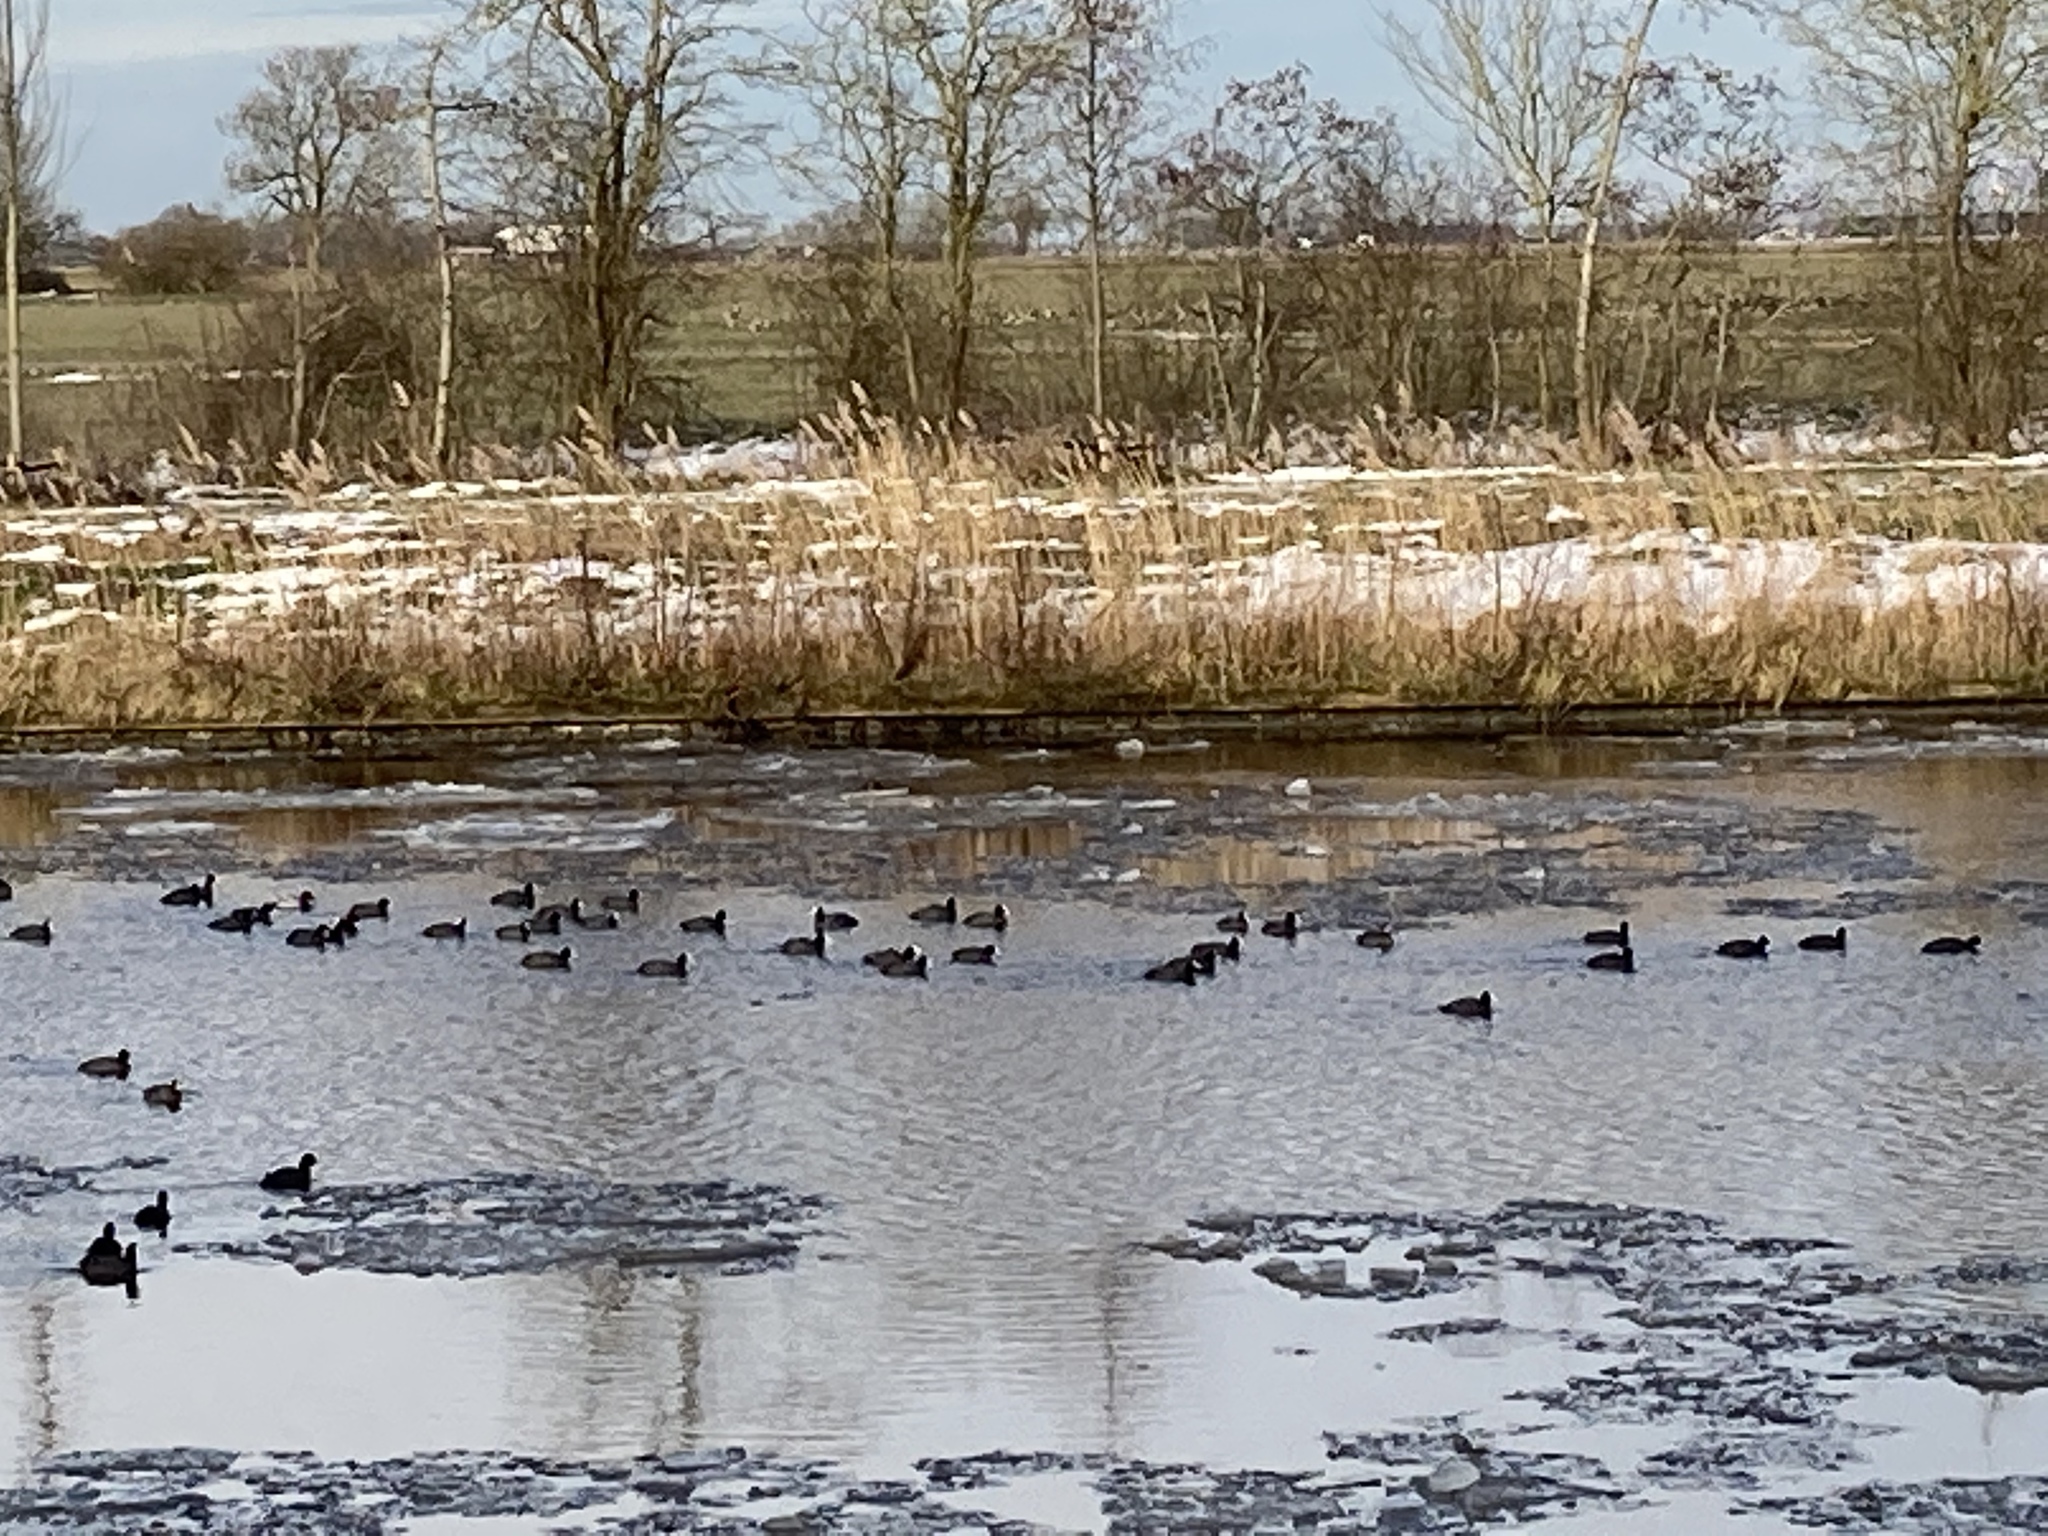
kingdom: Animalia
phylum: Chordata
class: Aves
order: Gruiformes
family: Rallidae
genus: Fulica
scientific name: Fulica atra
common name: Eurasian coot
